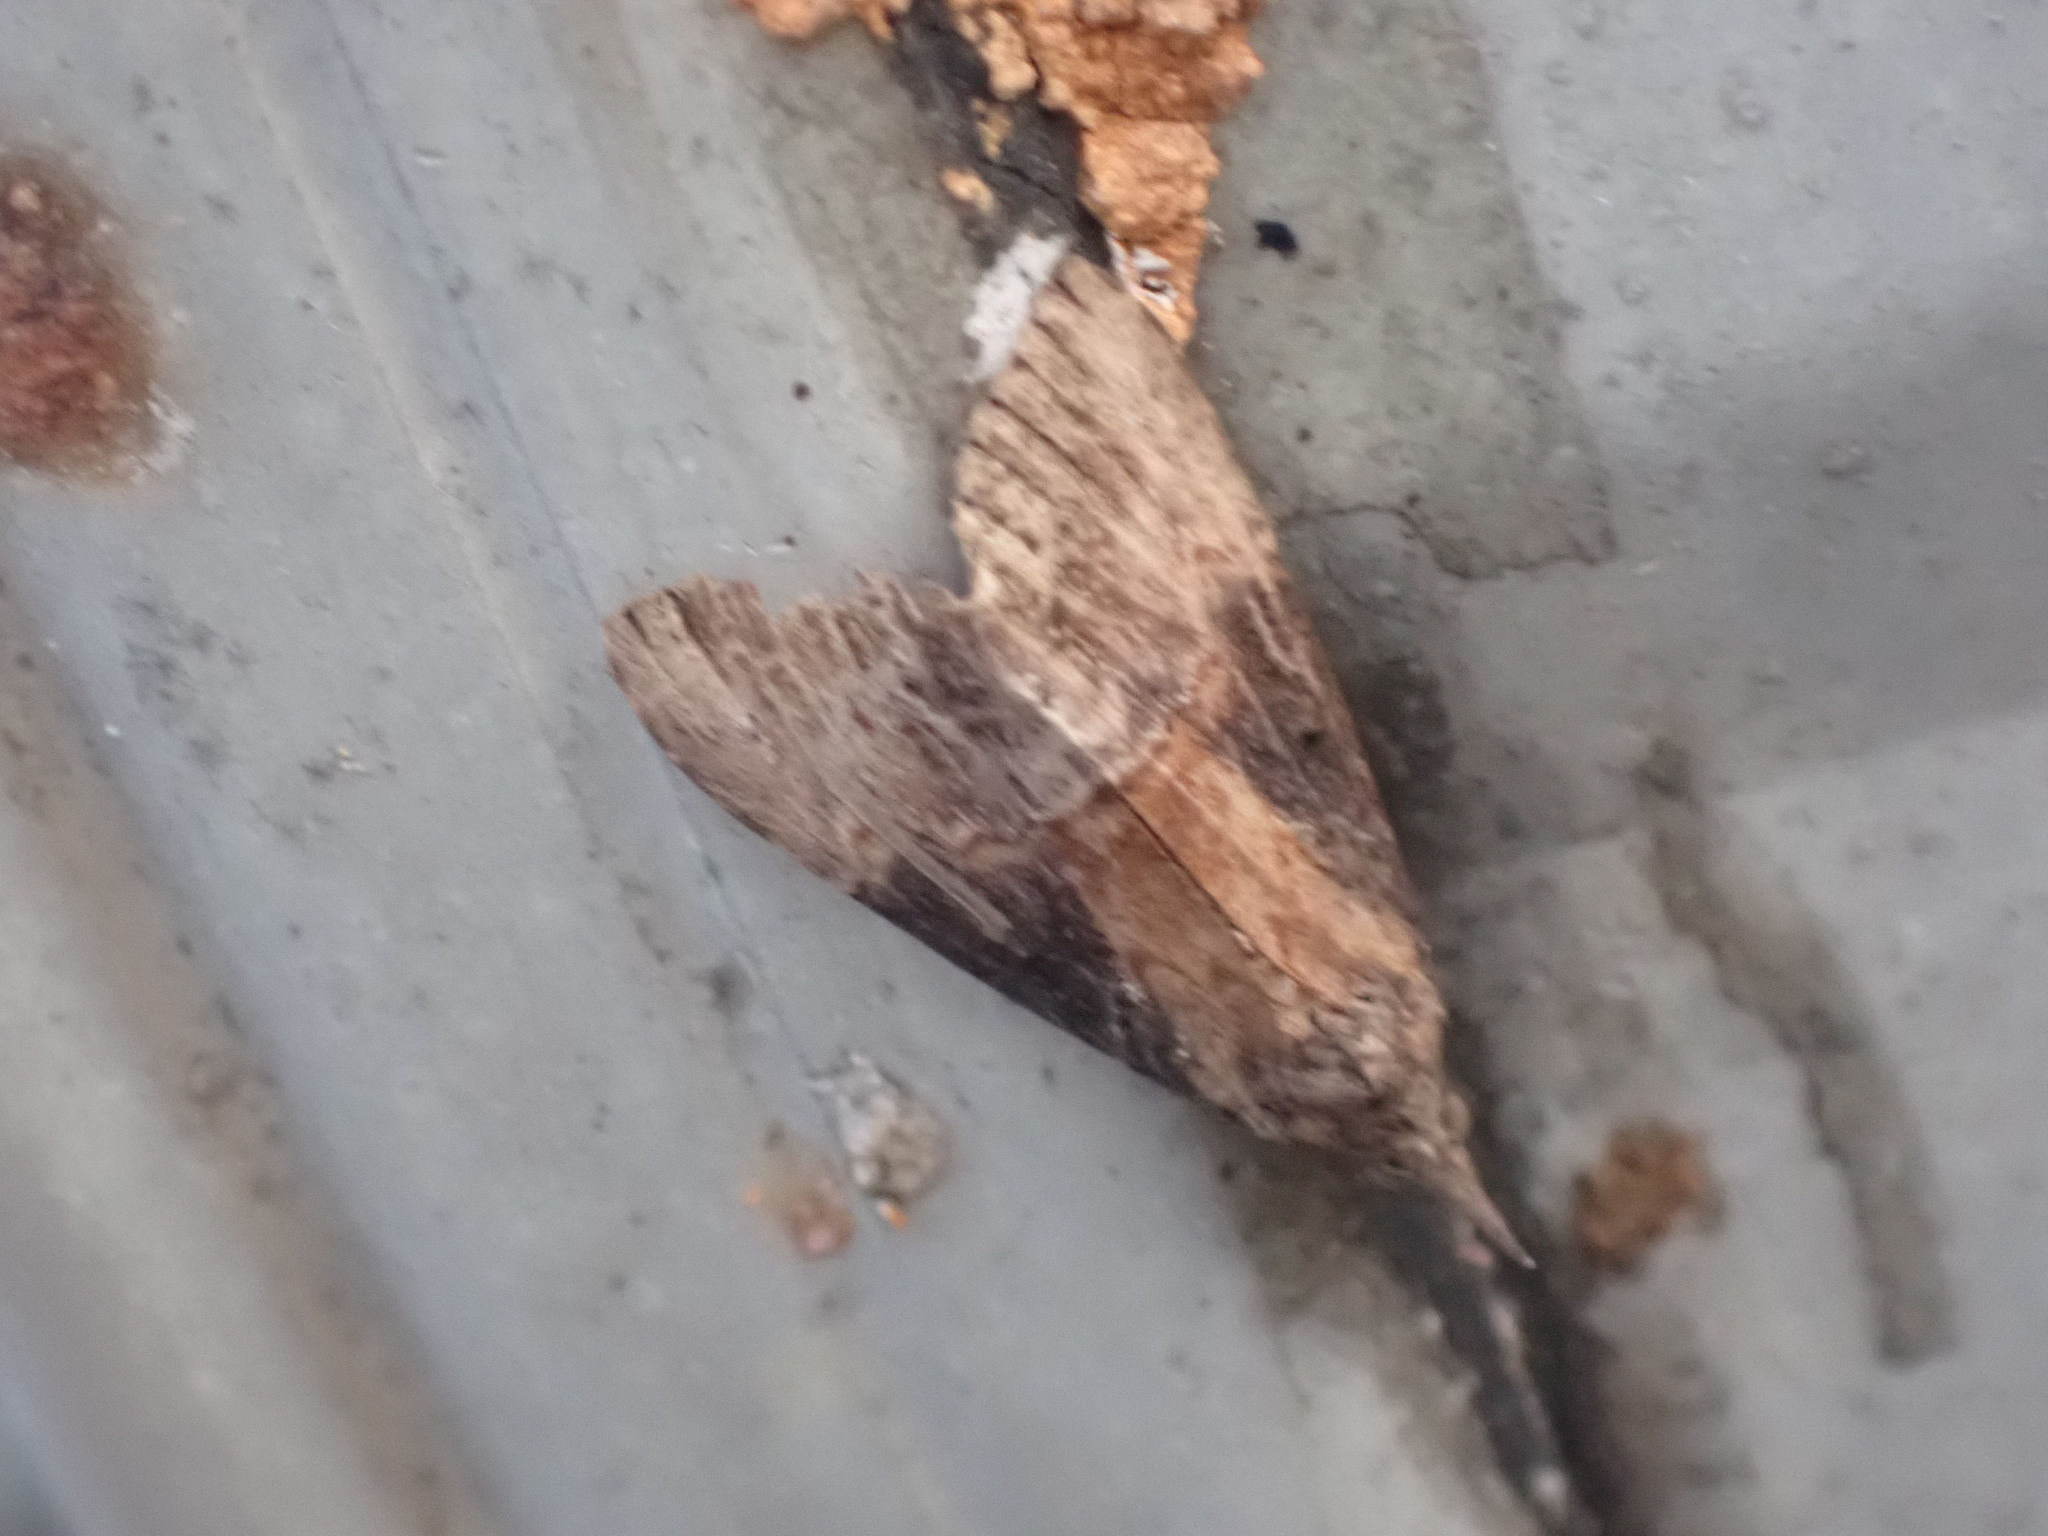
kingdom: Animalia
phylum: Arthropoda
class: Insecta
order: Lepidoptera
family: Erebidae
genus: Hypena
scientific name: Hypena scabra
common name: Green cloverworm
